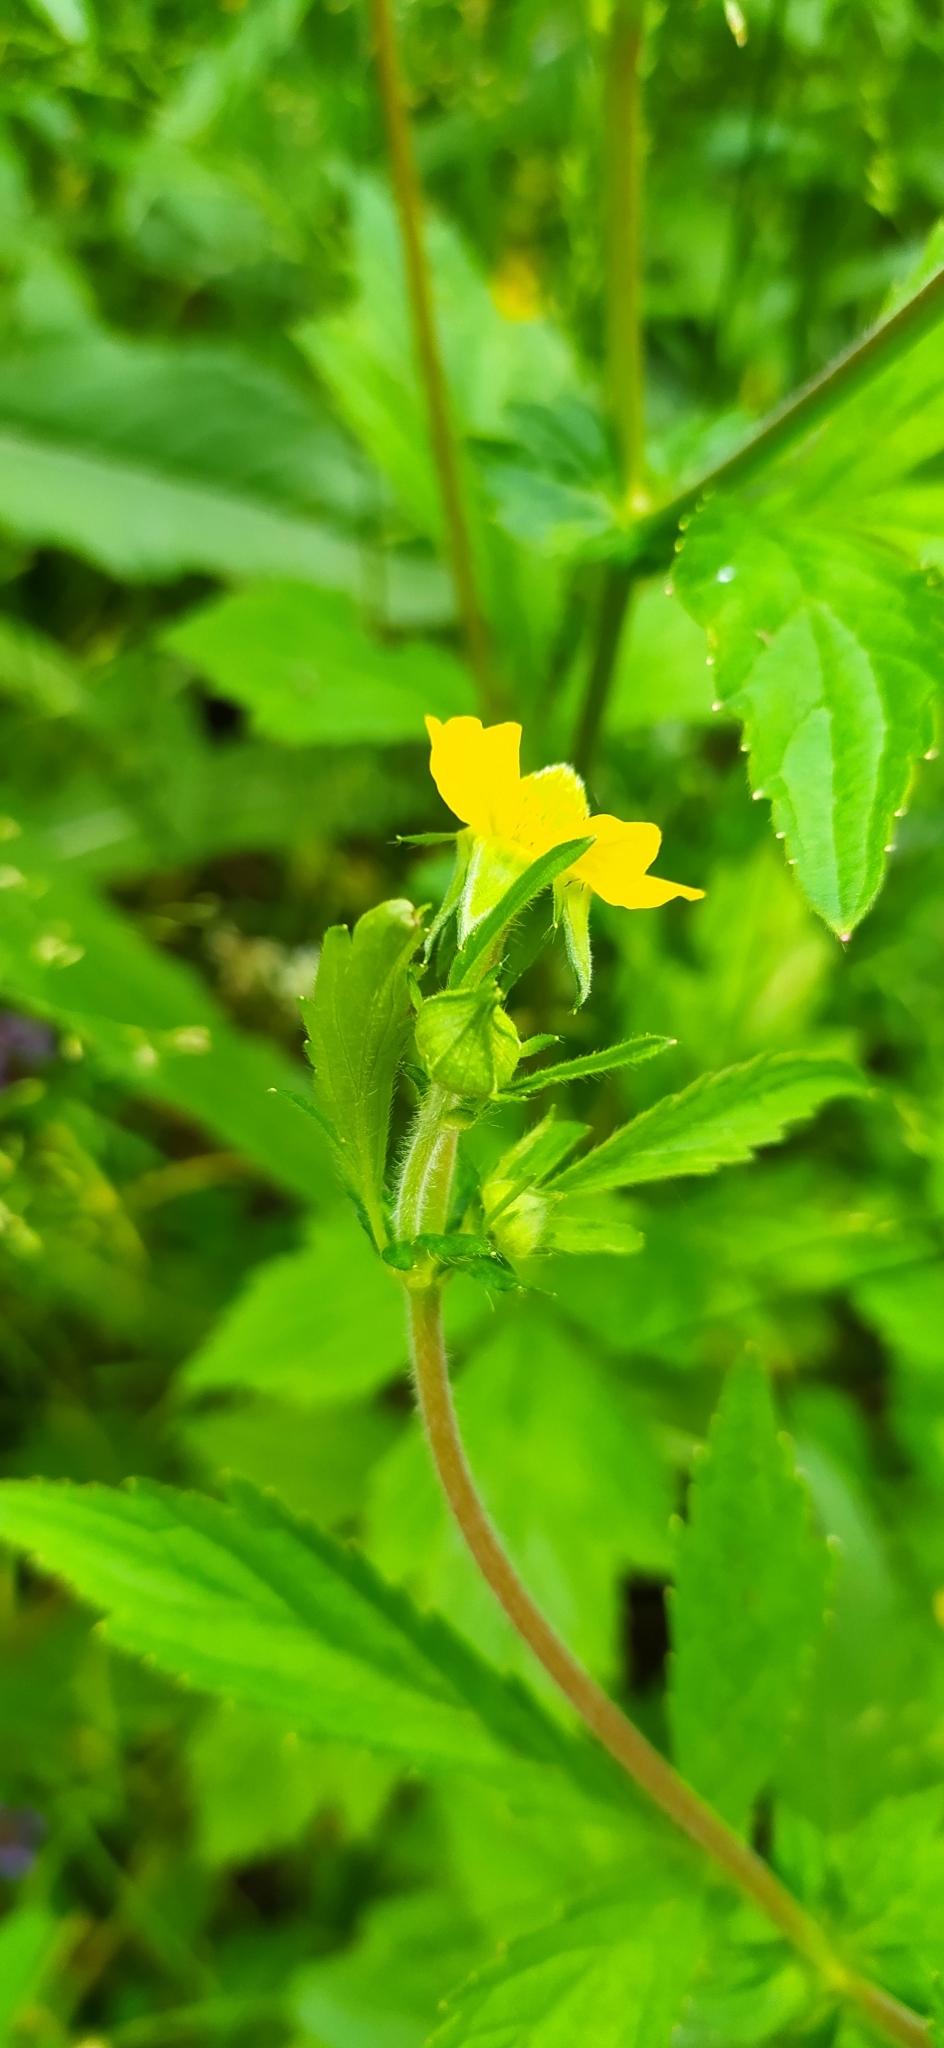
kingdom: Plantae
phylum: Tracheophyta
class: Magnoliopsida
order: Rosales
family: Rosaceae
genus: Geum
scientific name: Geum aleppicum
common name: Yellow avens
